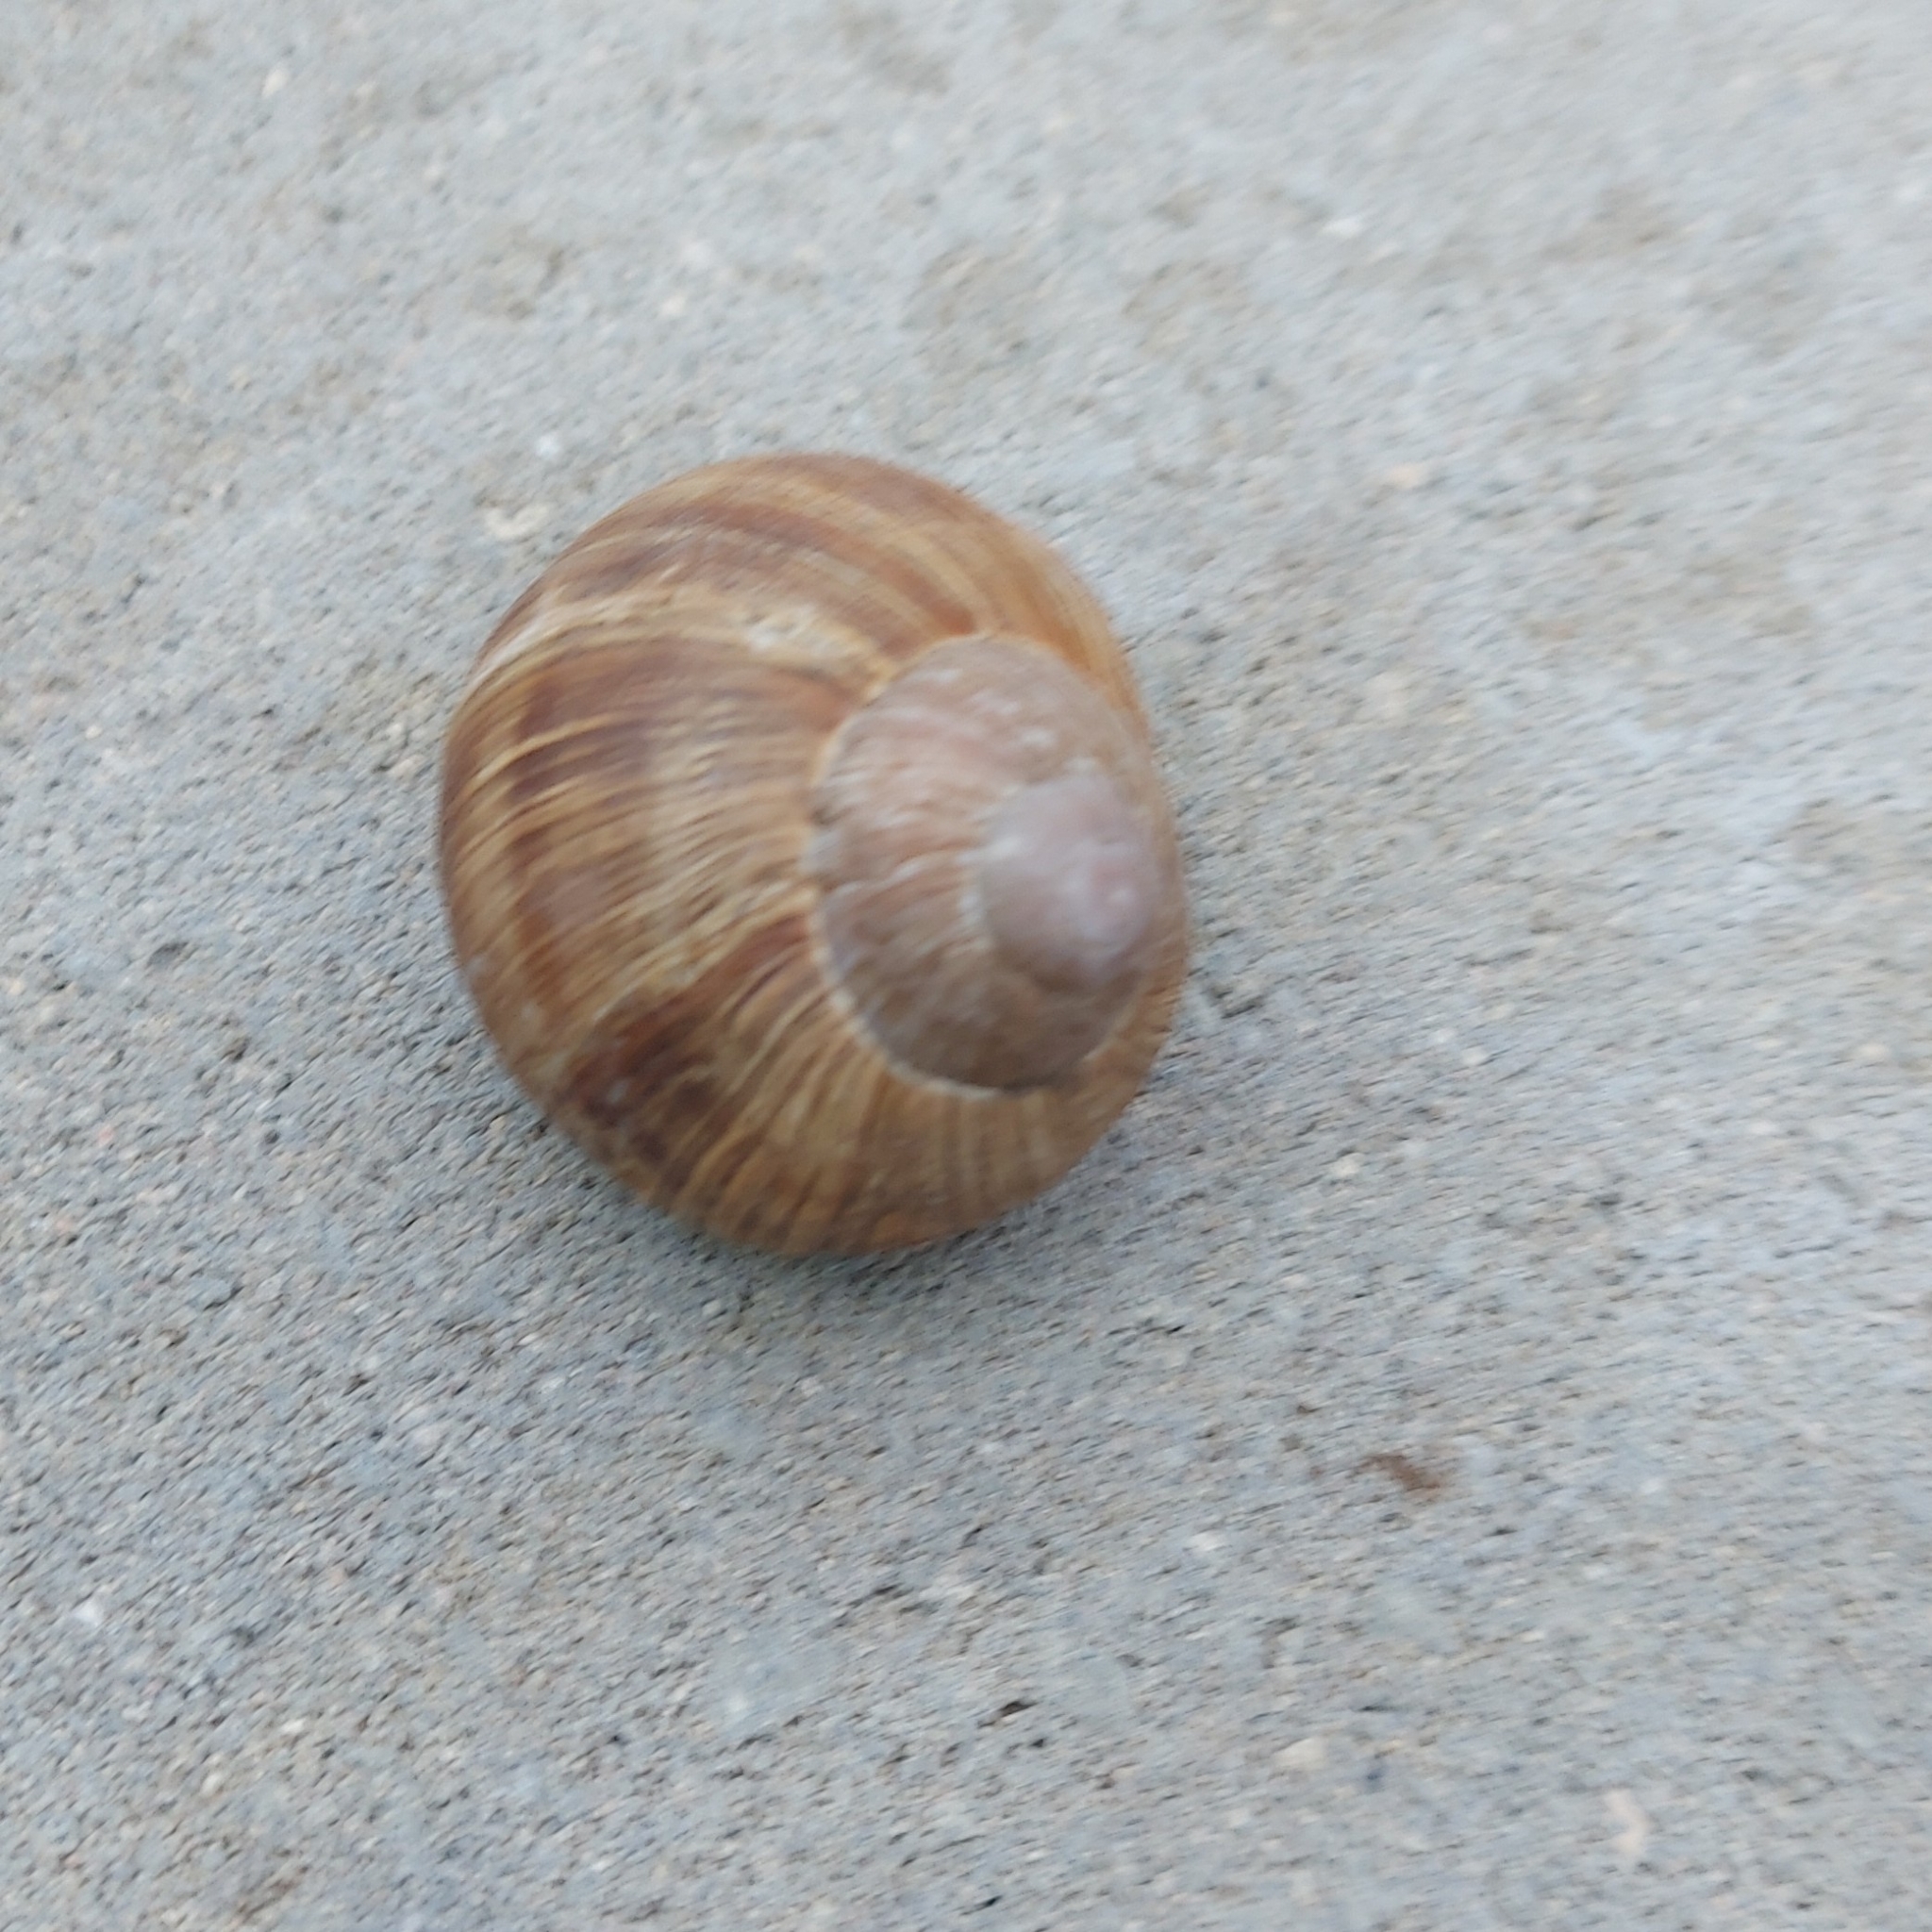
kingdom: Animalia
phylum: Mollusca
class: Gastropoda
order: Stylommatophora
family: Helicidae
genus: Helix
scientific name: Helix pomatia
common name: Roman snail
